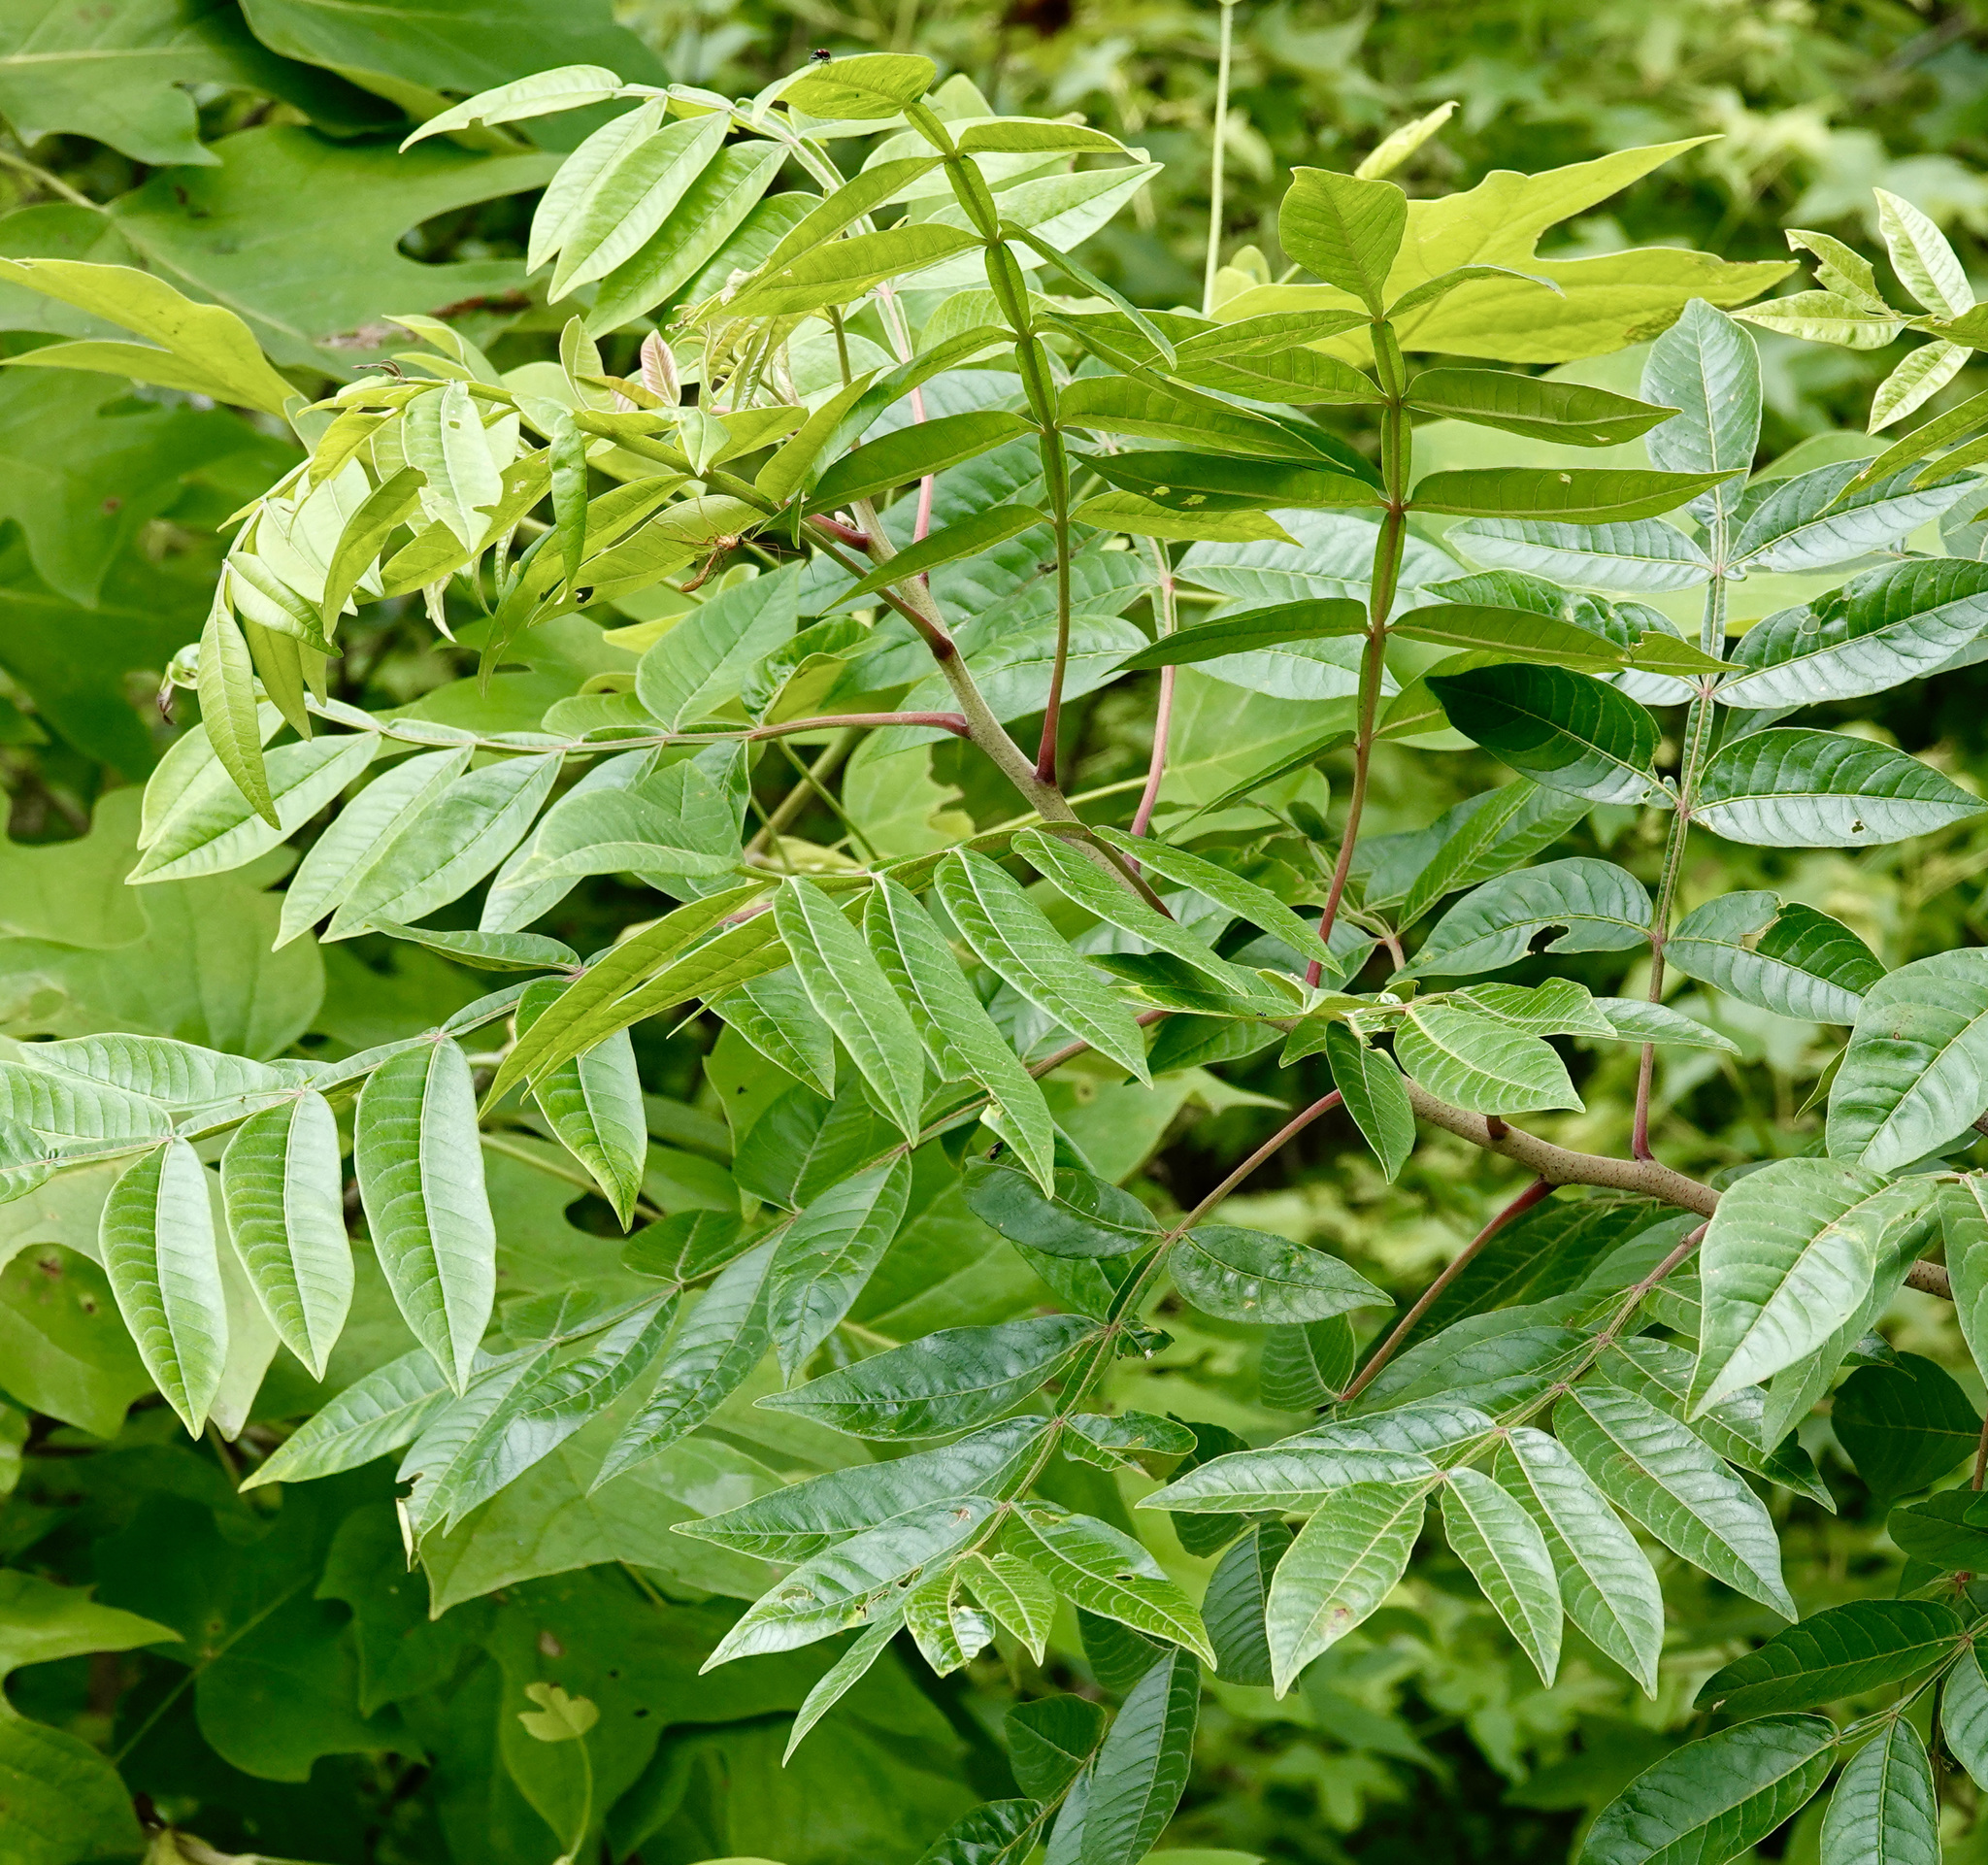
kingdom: Plantae
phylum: Tracheophyta
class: Magnoliopsida
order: Sapindales
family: Anacardiaceae
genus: Rhus
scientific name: Rhus copallina
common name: Shining sumac
